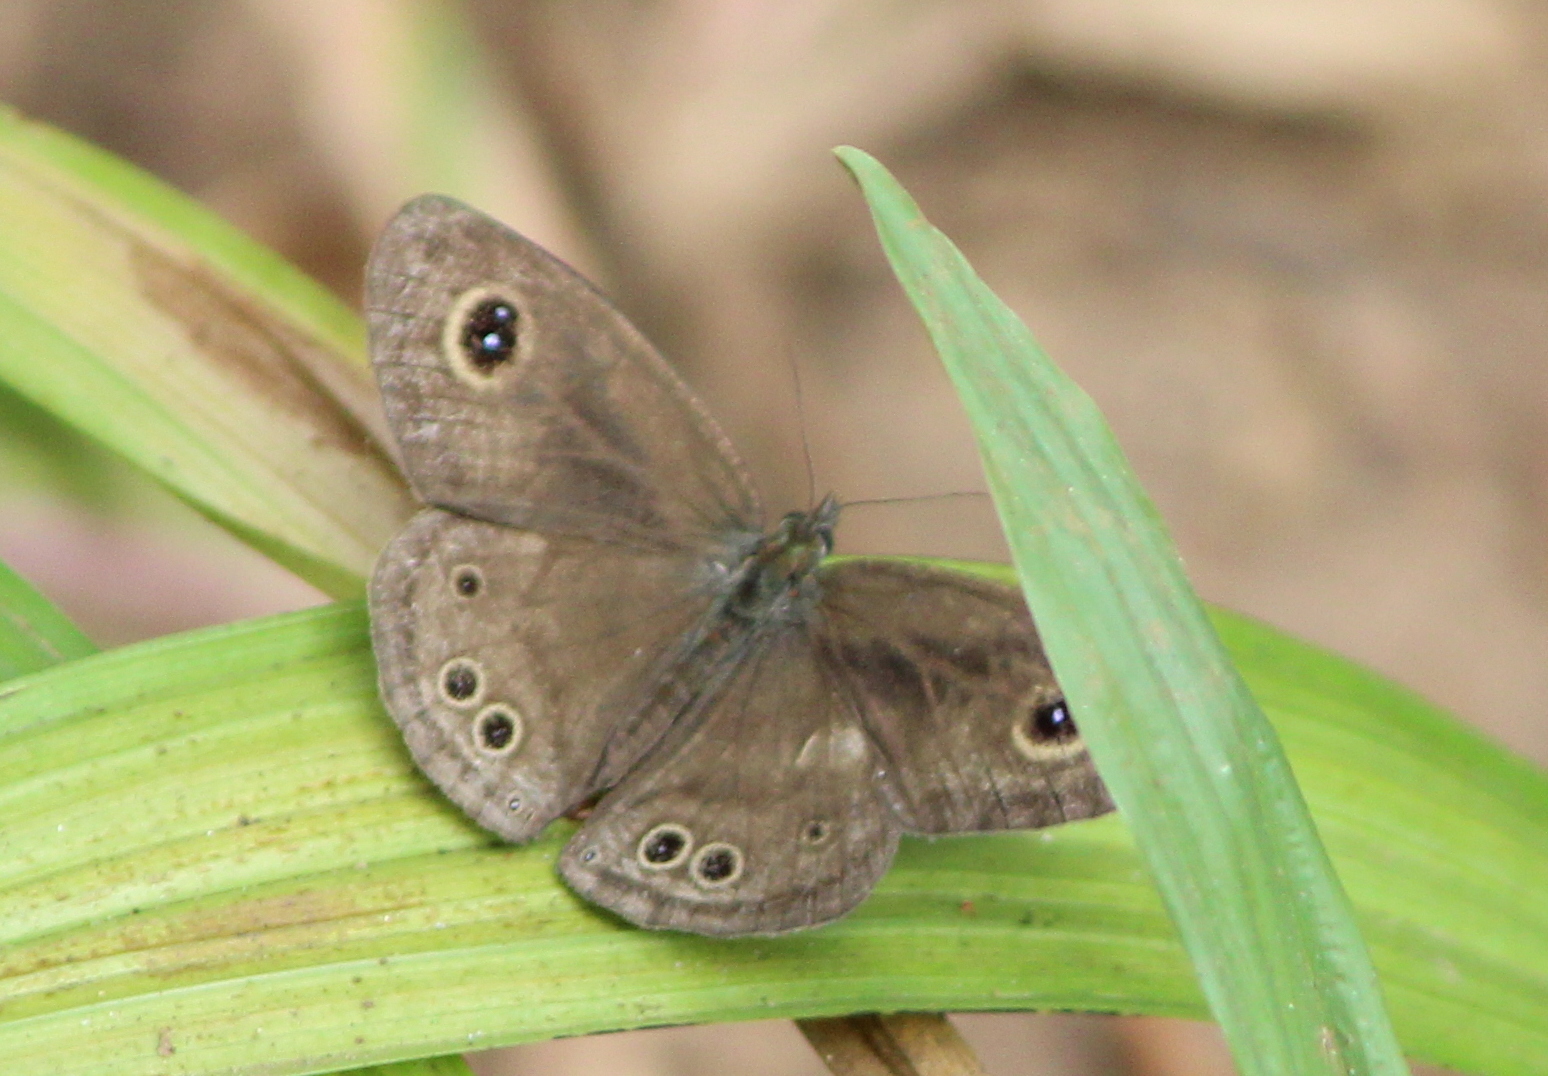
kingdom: Animalia
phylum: Arthropoda
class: Insecta
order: Lepidoptera
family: Nymphalidae
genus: Ypthima
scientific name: Ypthima baldus
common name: Common five-ring
